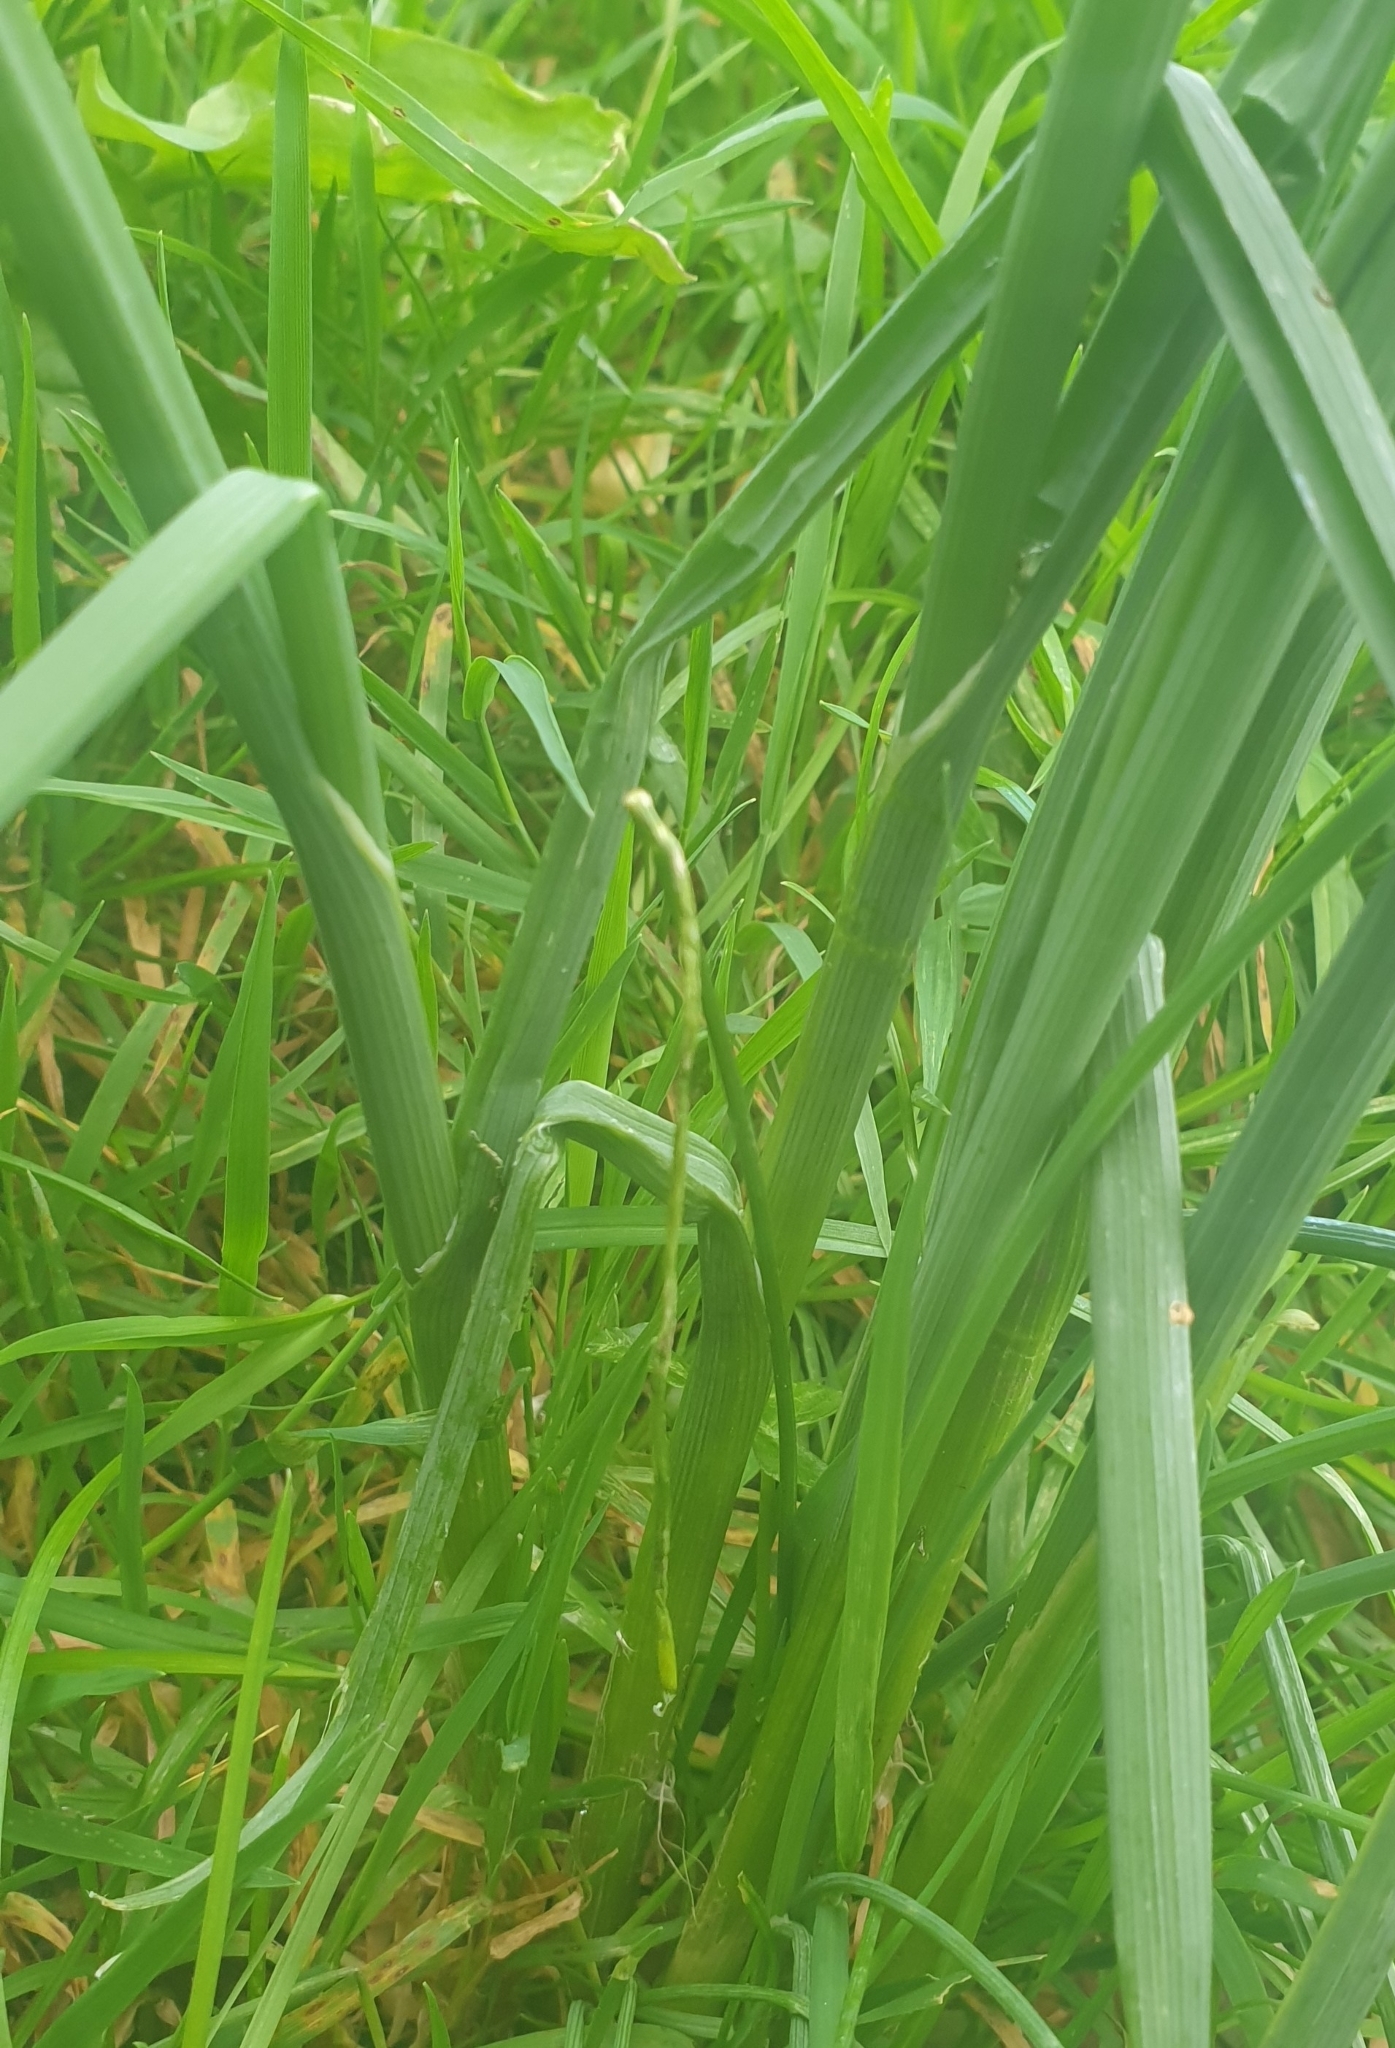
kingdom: Plantae
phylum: Tracheophyta
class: Liliopsida
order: Asparagales
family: Amaryllidaceae
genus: Allium
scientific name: Allium vineale
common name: Crow garlic
